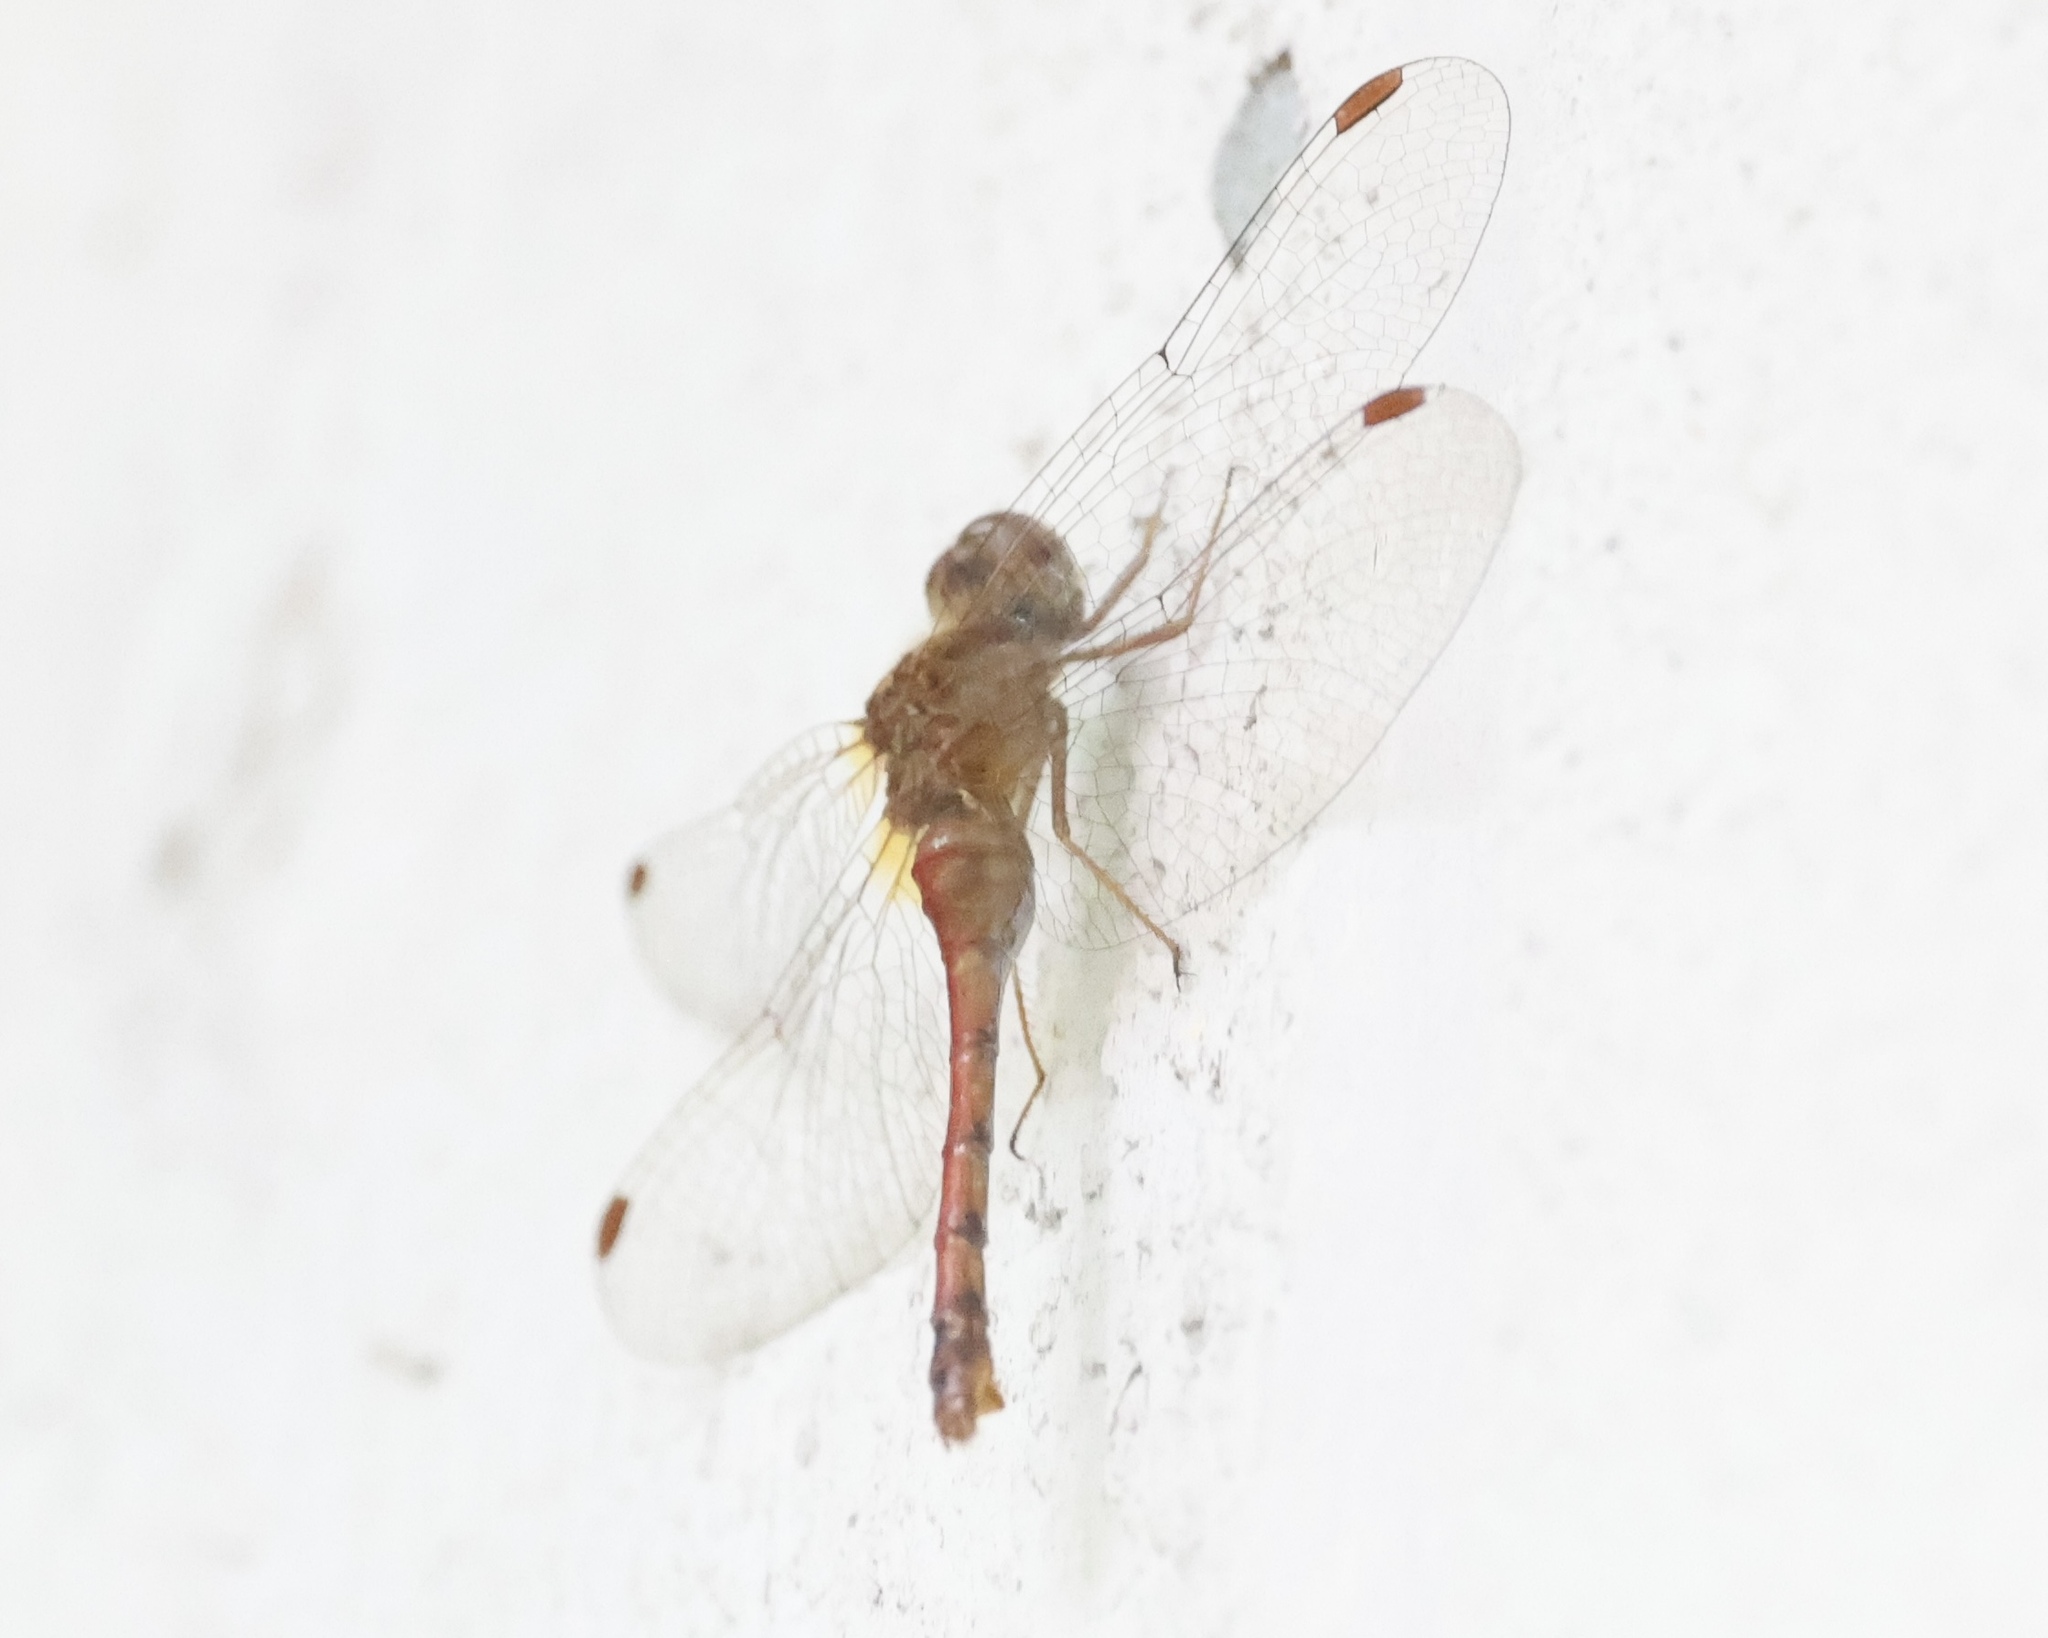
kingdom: Animalia
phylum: Arthropoda
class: Insecta
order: Odonata
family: Libellulidae
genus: Sympetrum
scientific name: Sympetrum vicinum
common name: Autumn meadowhawk
